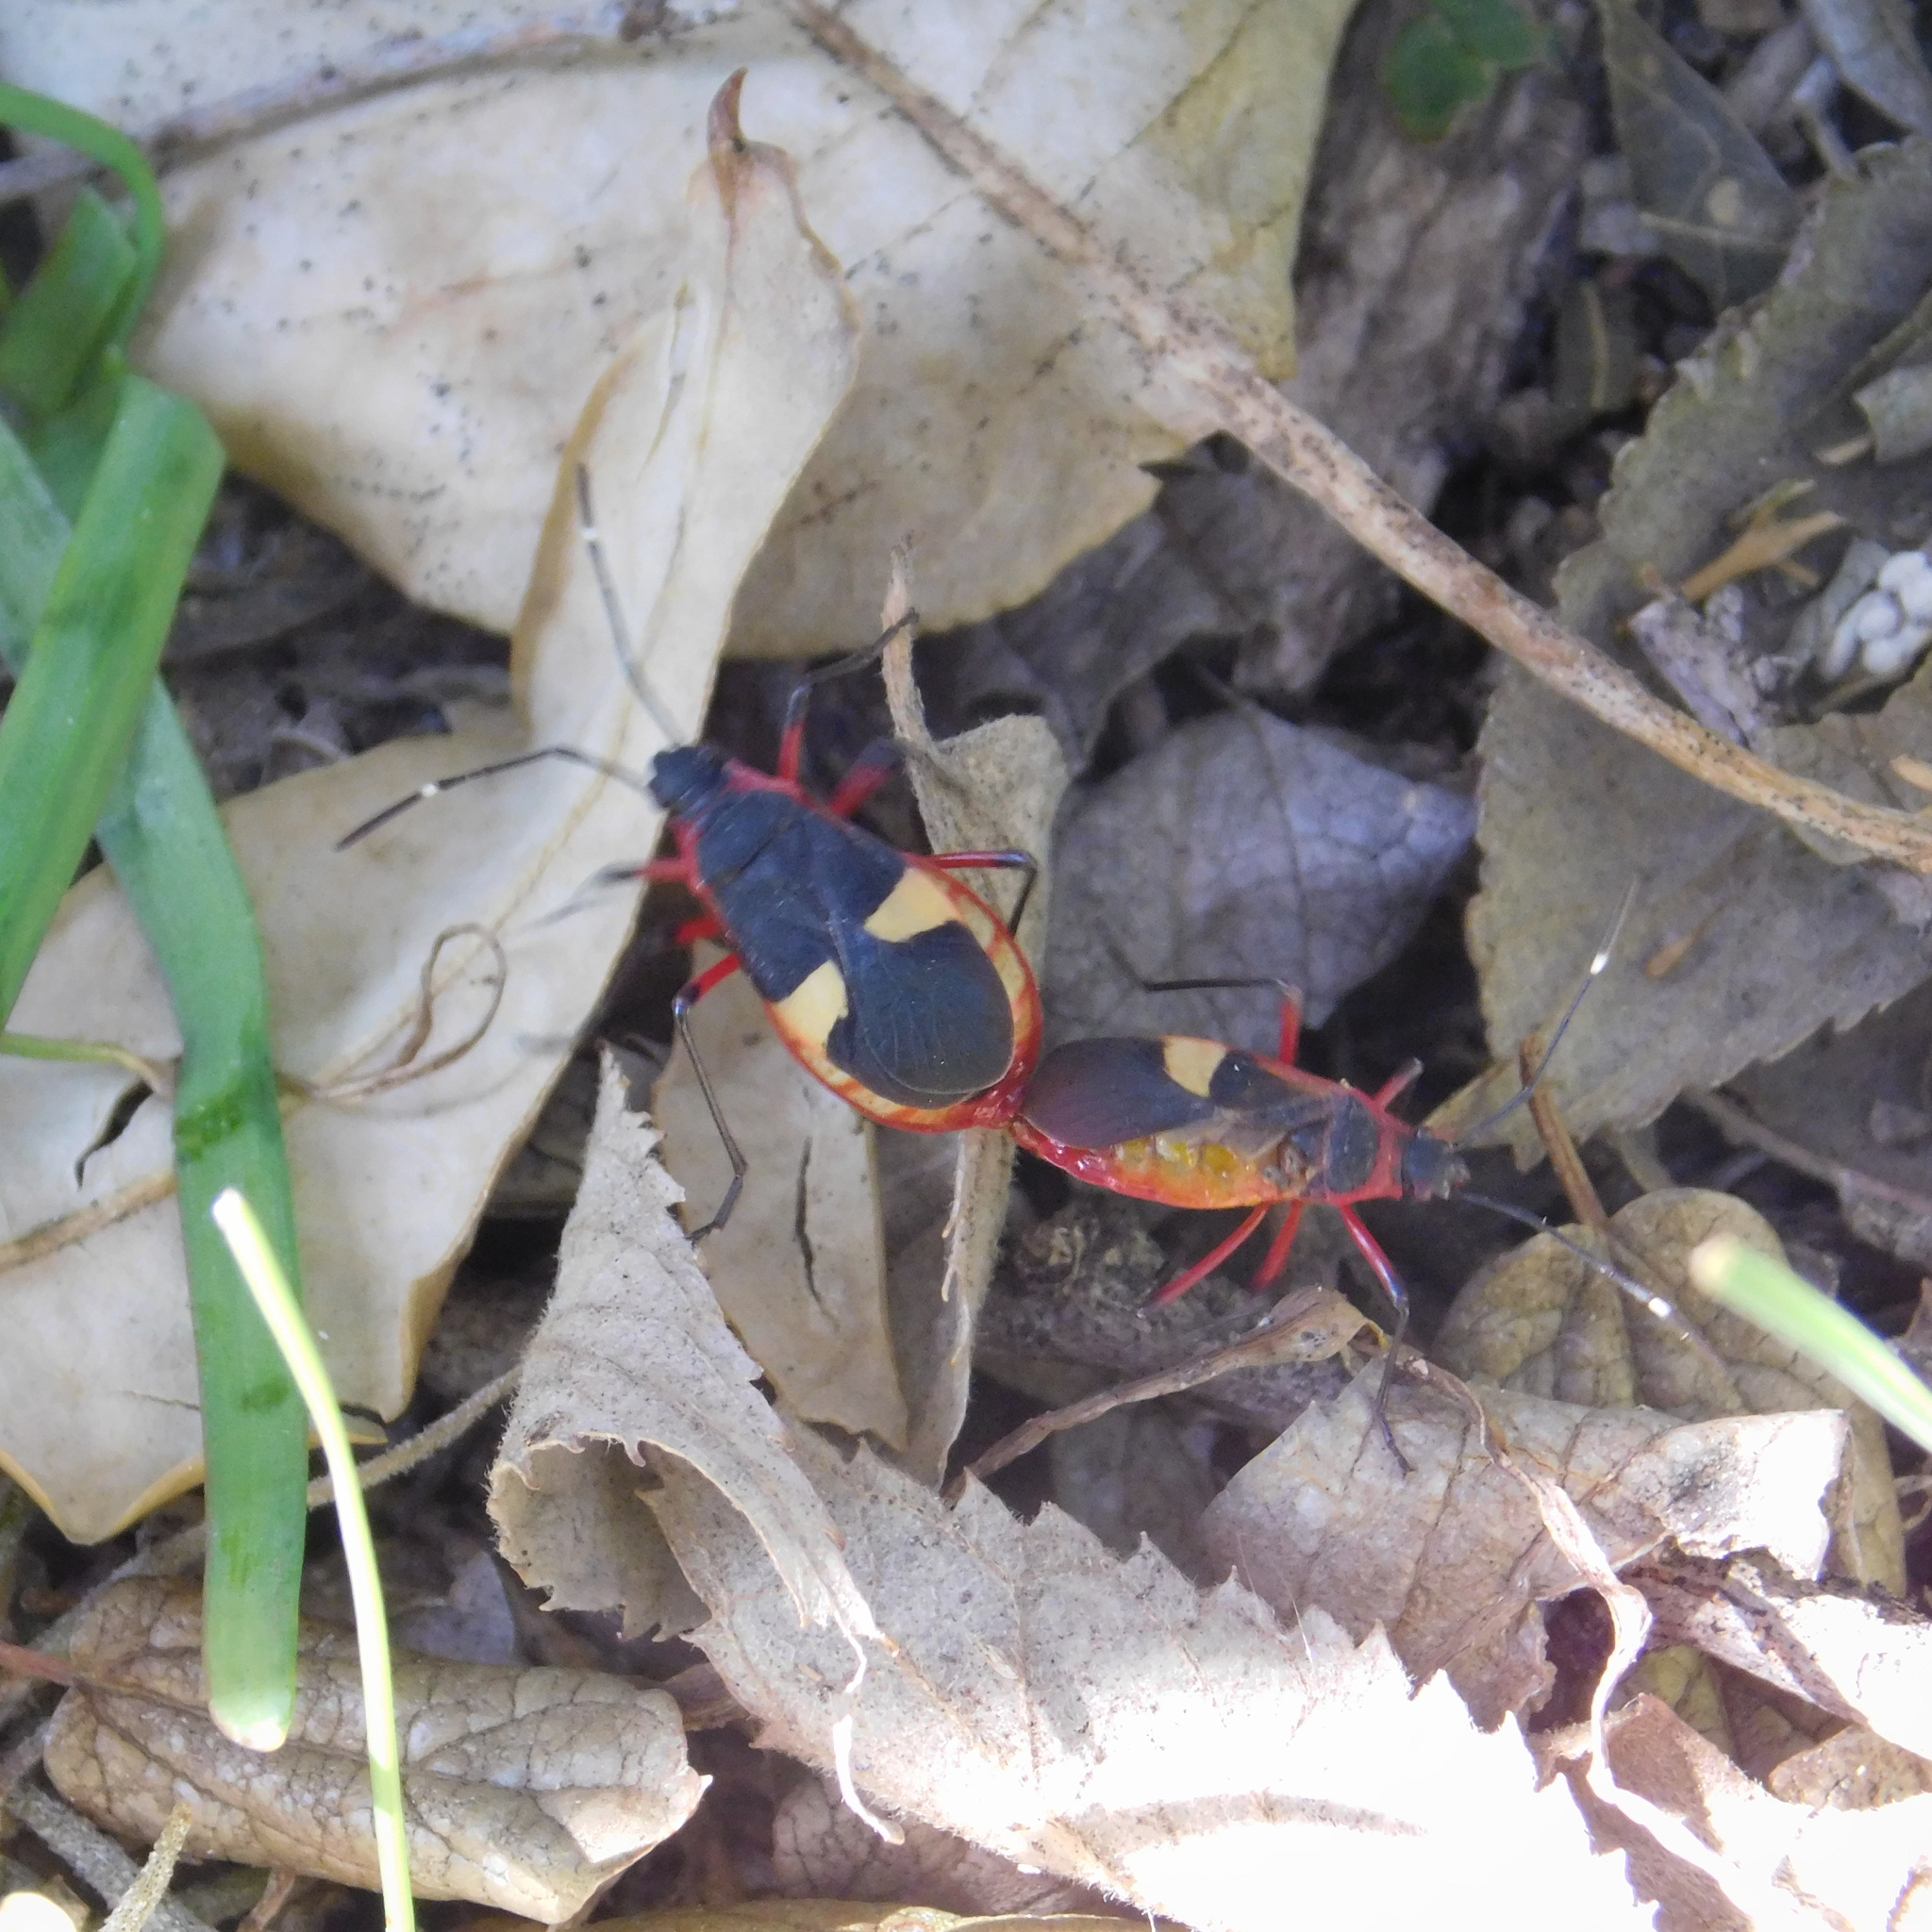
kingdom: Animalia
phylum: Arthropoda
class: Insecta
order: Hemiptera
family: Pyrrhocoridae
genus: Dysdercus
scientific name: Dysdercus albofasciatus
